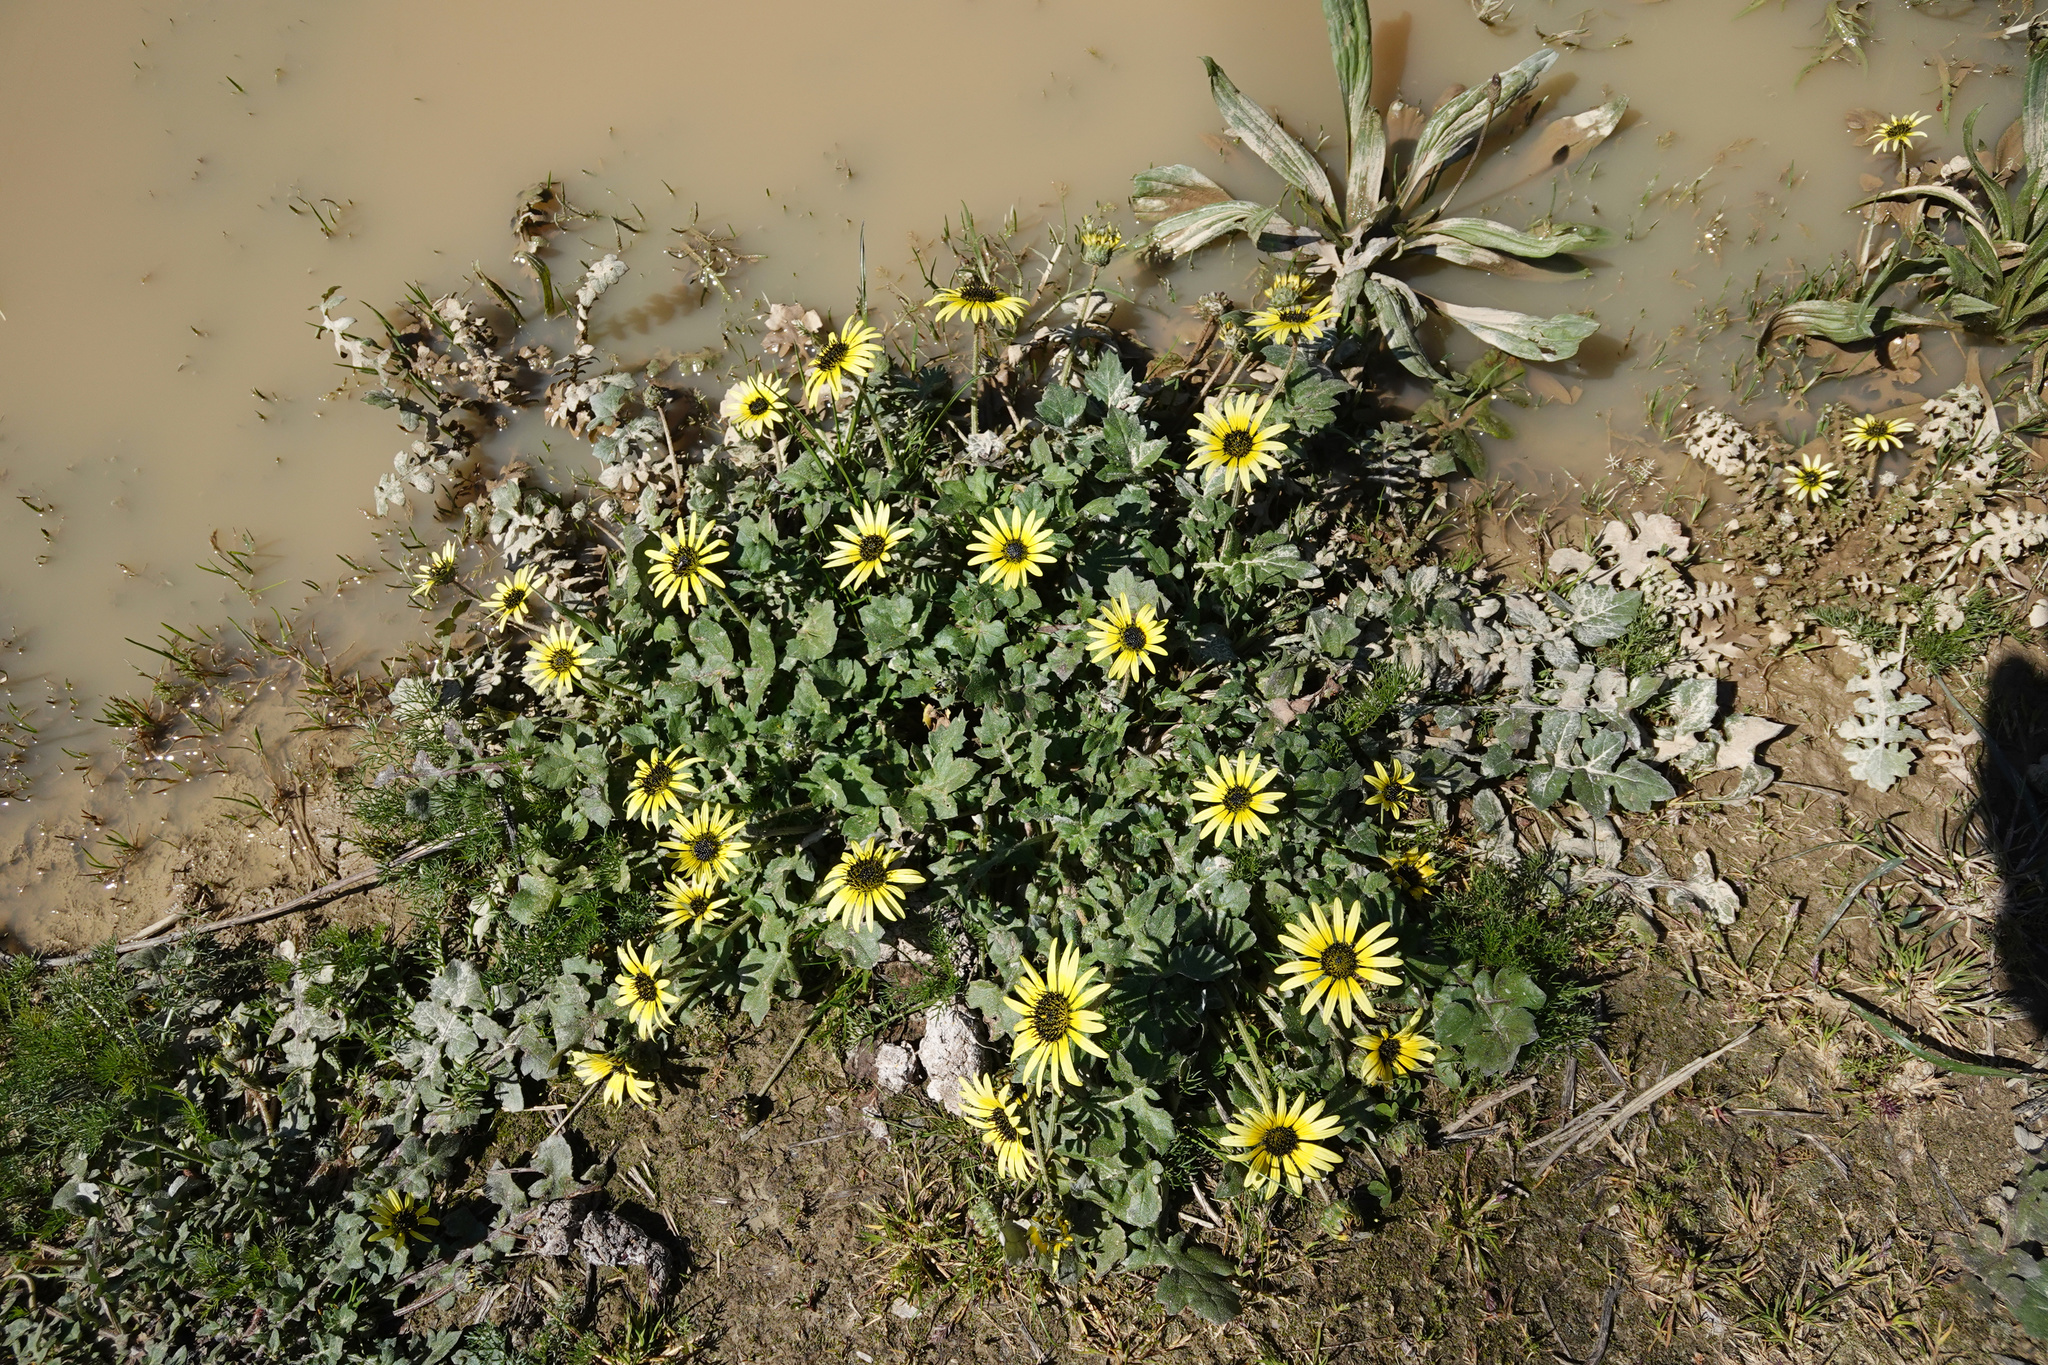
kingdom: Plantae
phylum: Tracheophyta
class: Magnoliopsida
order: Asterales
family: Asteraceae
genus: Arctotheca
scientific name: Arctotheca calendula
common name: Capeweed
